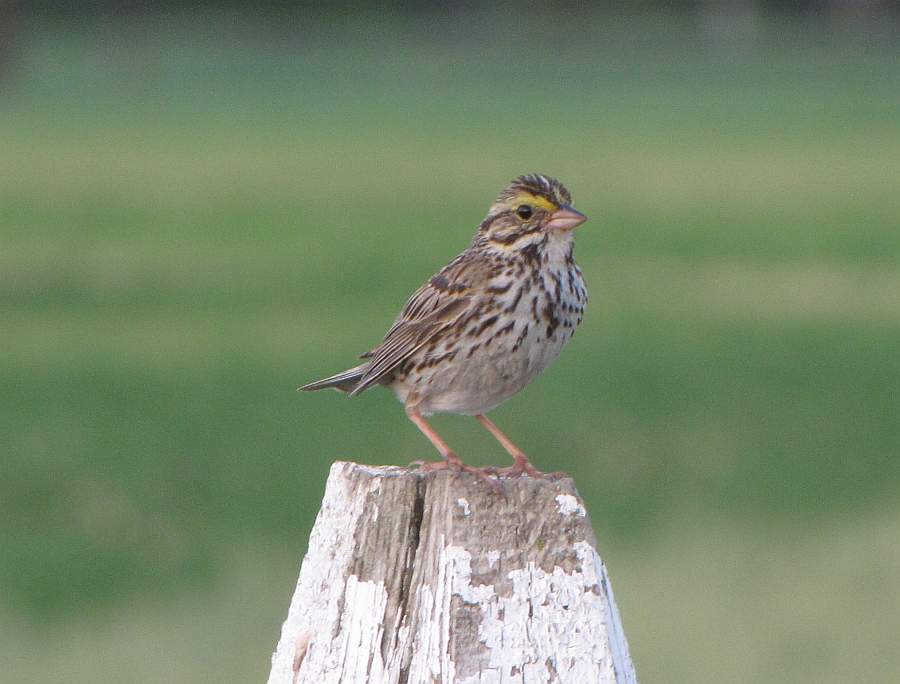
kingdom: Animalia
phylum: Chordata
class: Aves
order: Passeriformes
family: Passerellidae
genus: Passerculus
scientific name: Passerculus sandwichensis
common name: Savannah sparrow
